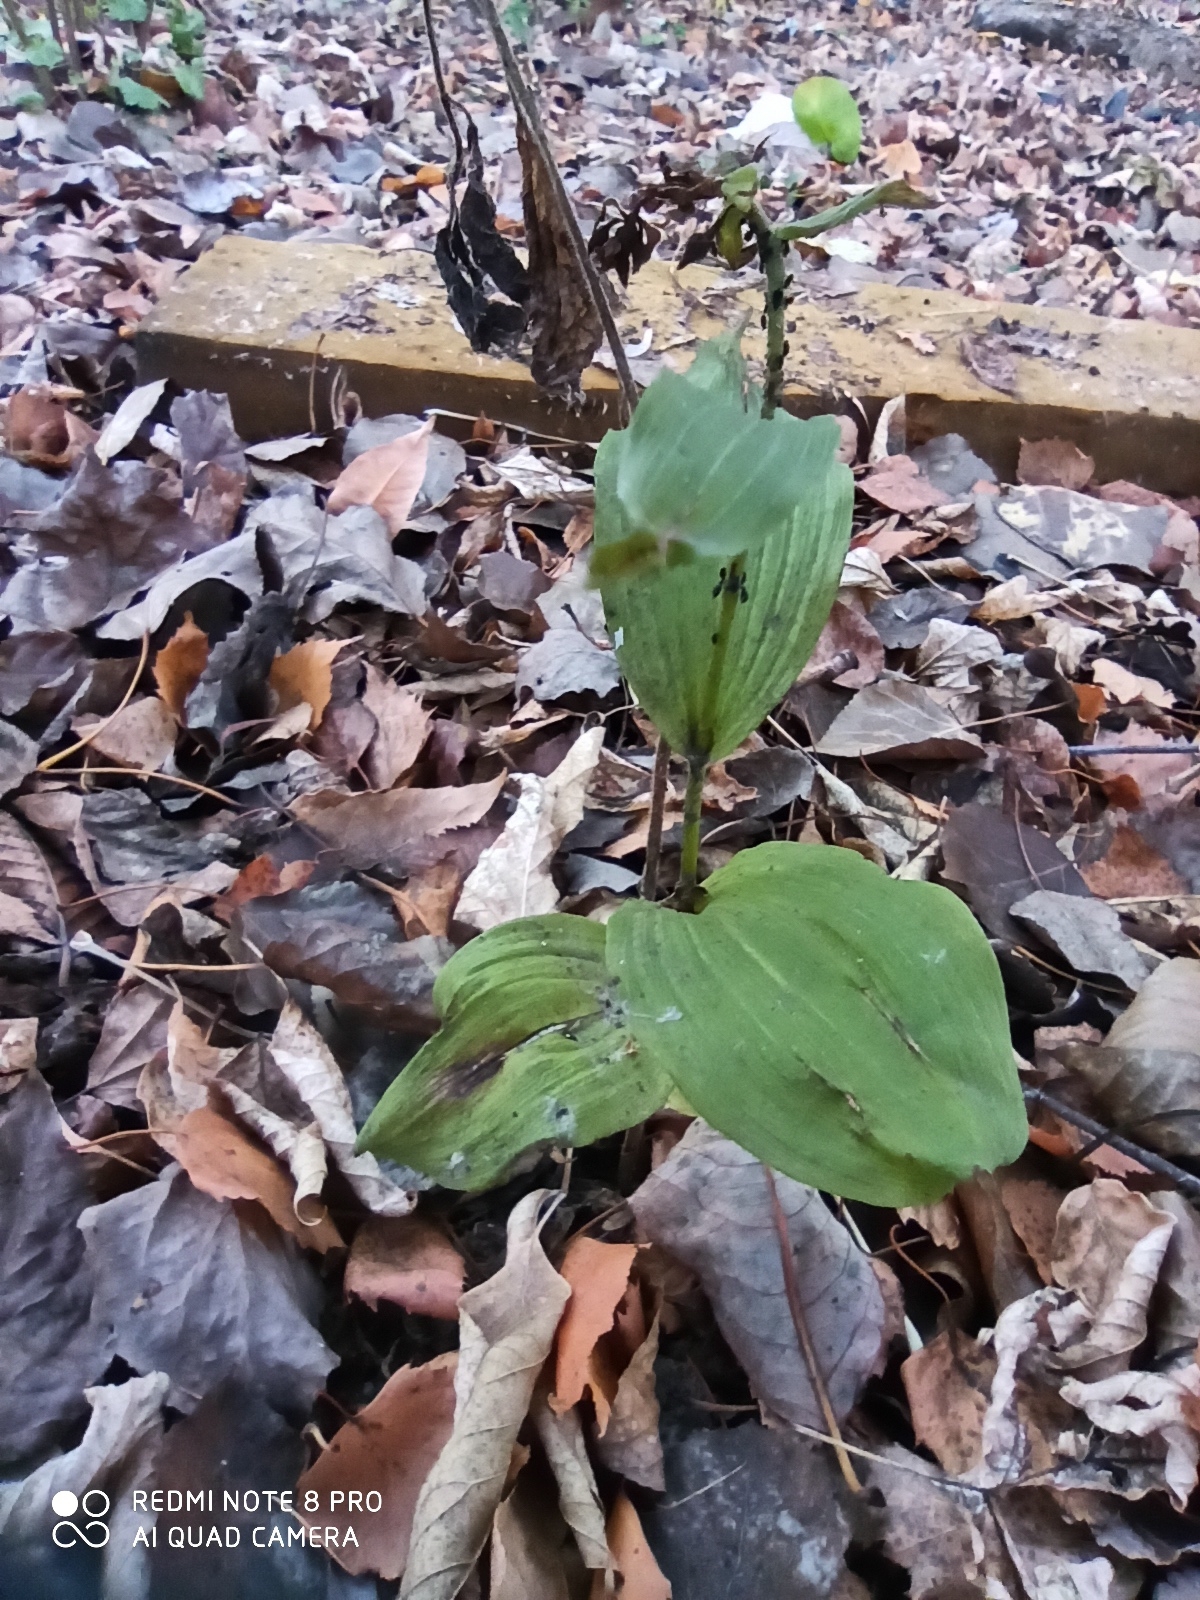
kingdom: Plantae
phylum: Tracheophyta
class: Liliopsida
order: Asparagales
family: Orchidaceae
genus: Epipactis
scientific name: Epipactis helleborine
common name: Broad-leaved helleborine
